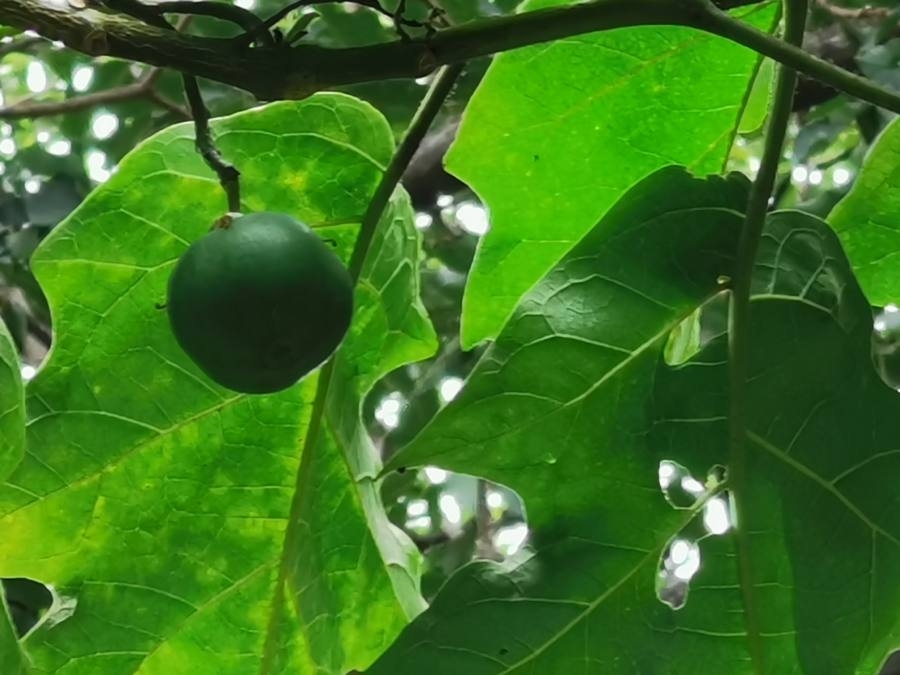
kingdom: Plantae
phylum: Tracheophyta
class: Magnoliopsida
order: Solanales
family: Solanaceae
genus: Solanum
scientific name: Solanum wrightii
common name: Brazilian potato-tree
